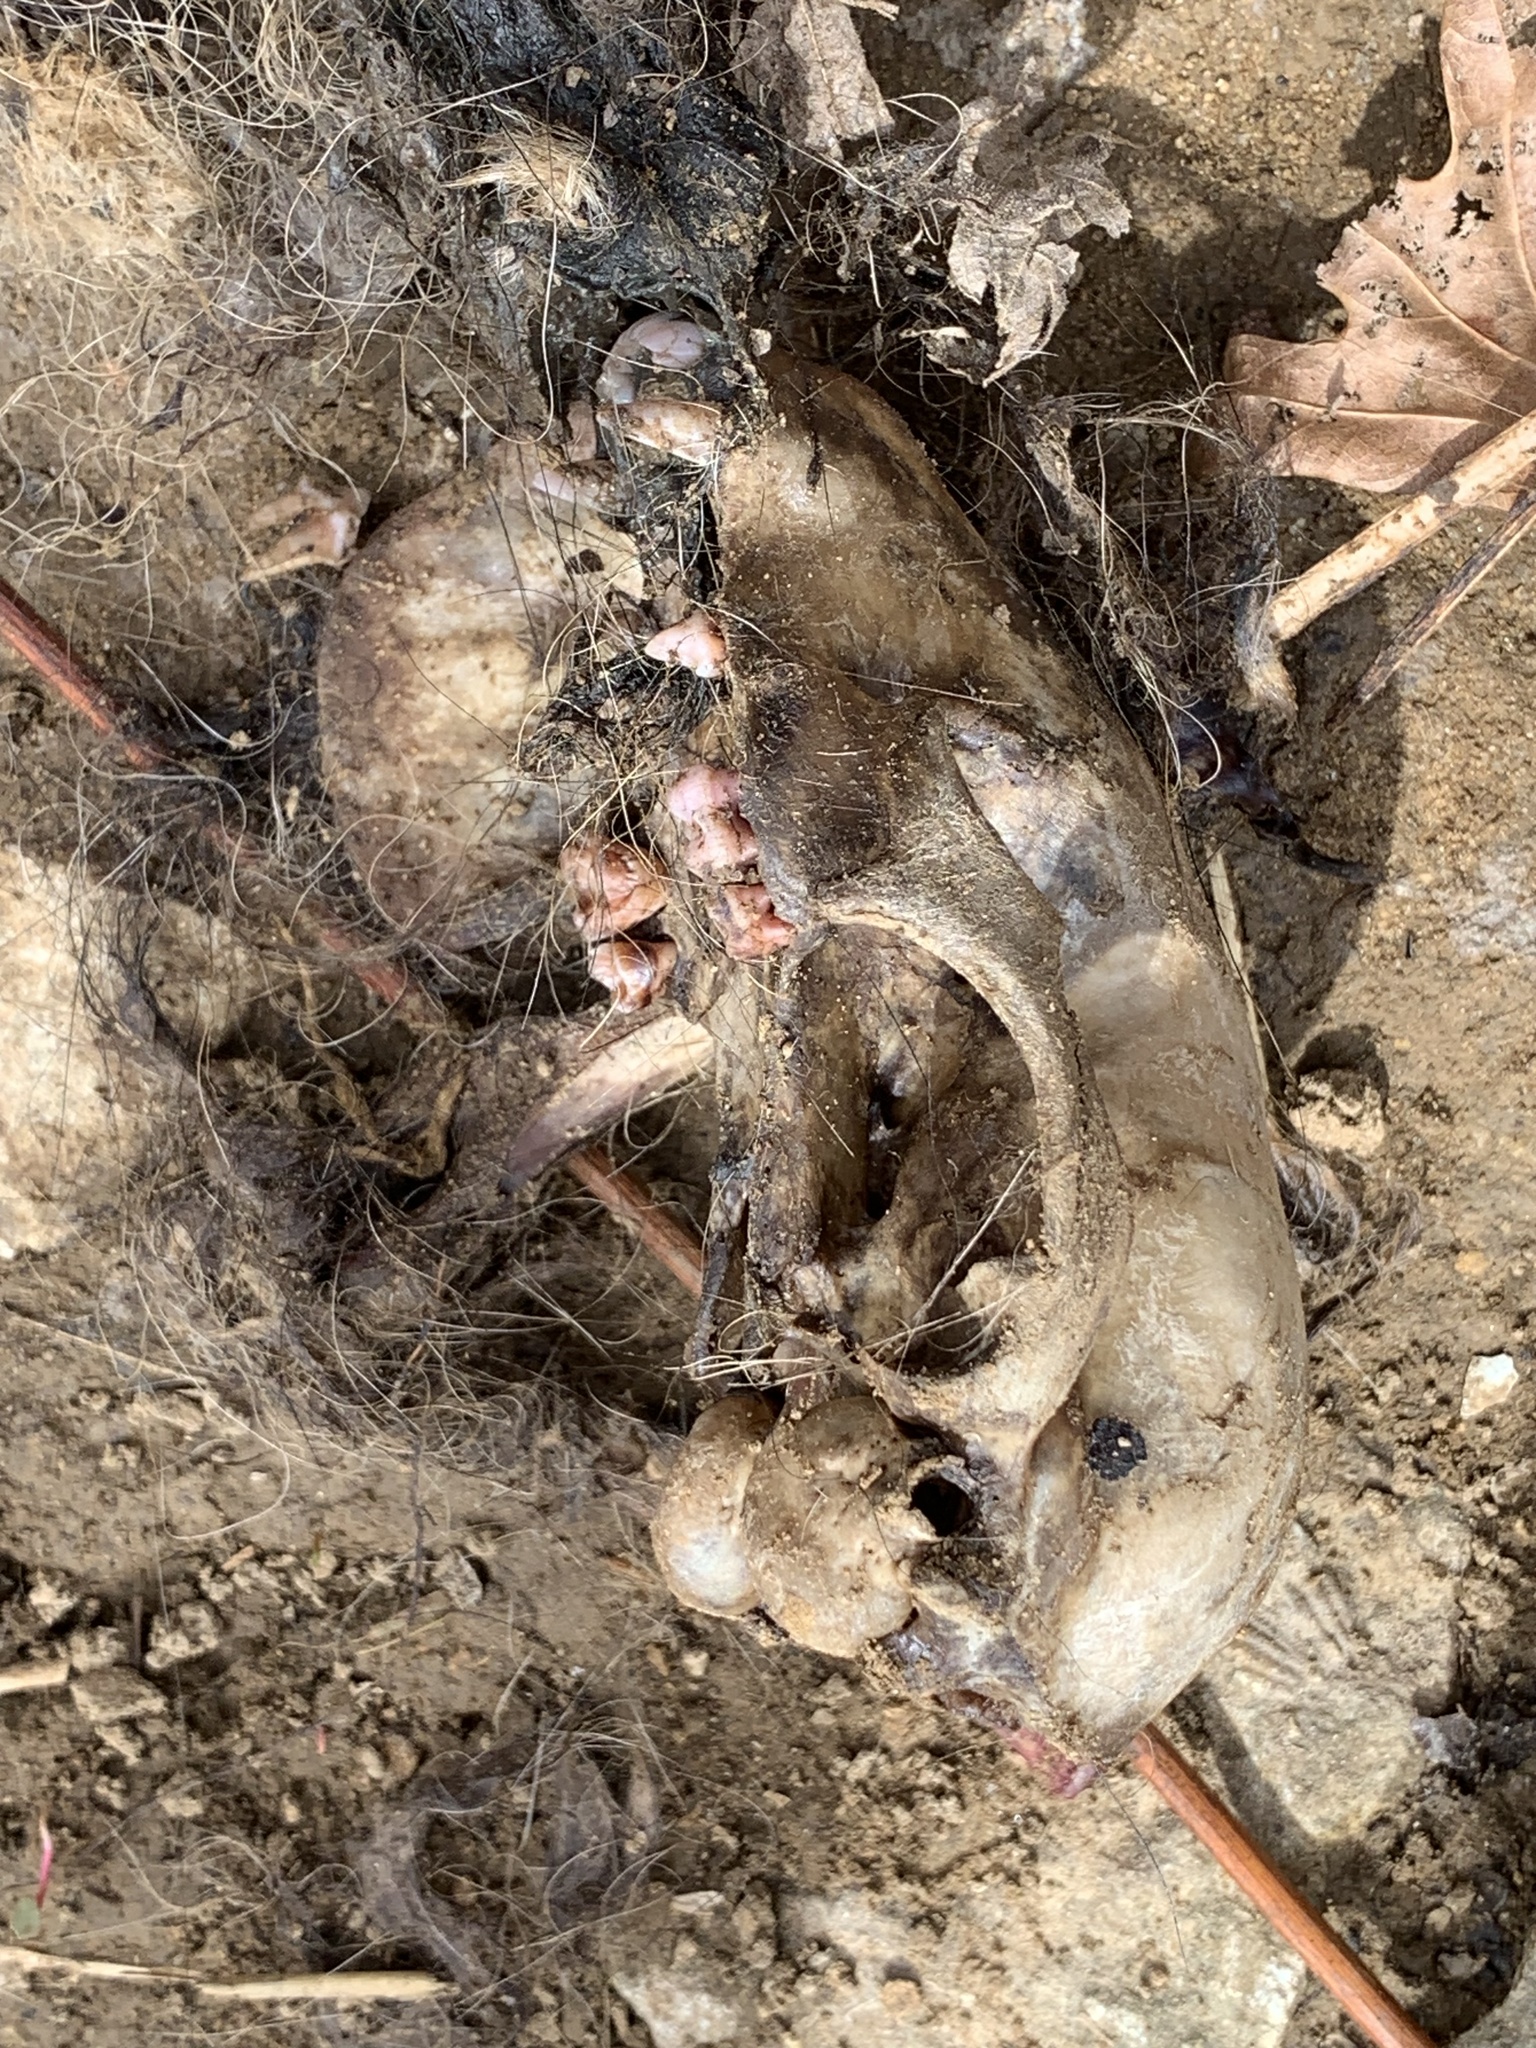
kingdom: Animalia
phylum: Chordata
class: Mammalia
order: Carnivora
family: Procyonidae
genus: Procyon
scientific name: Procyon lotor
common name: Raccoon
